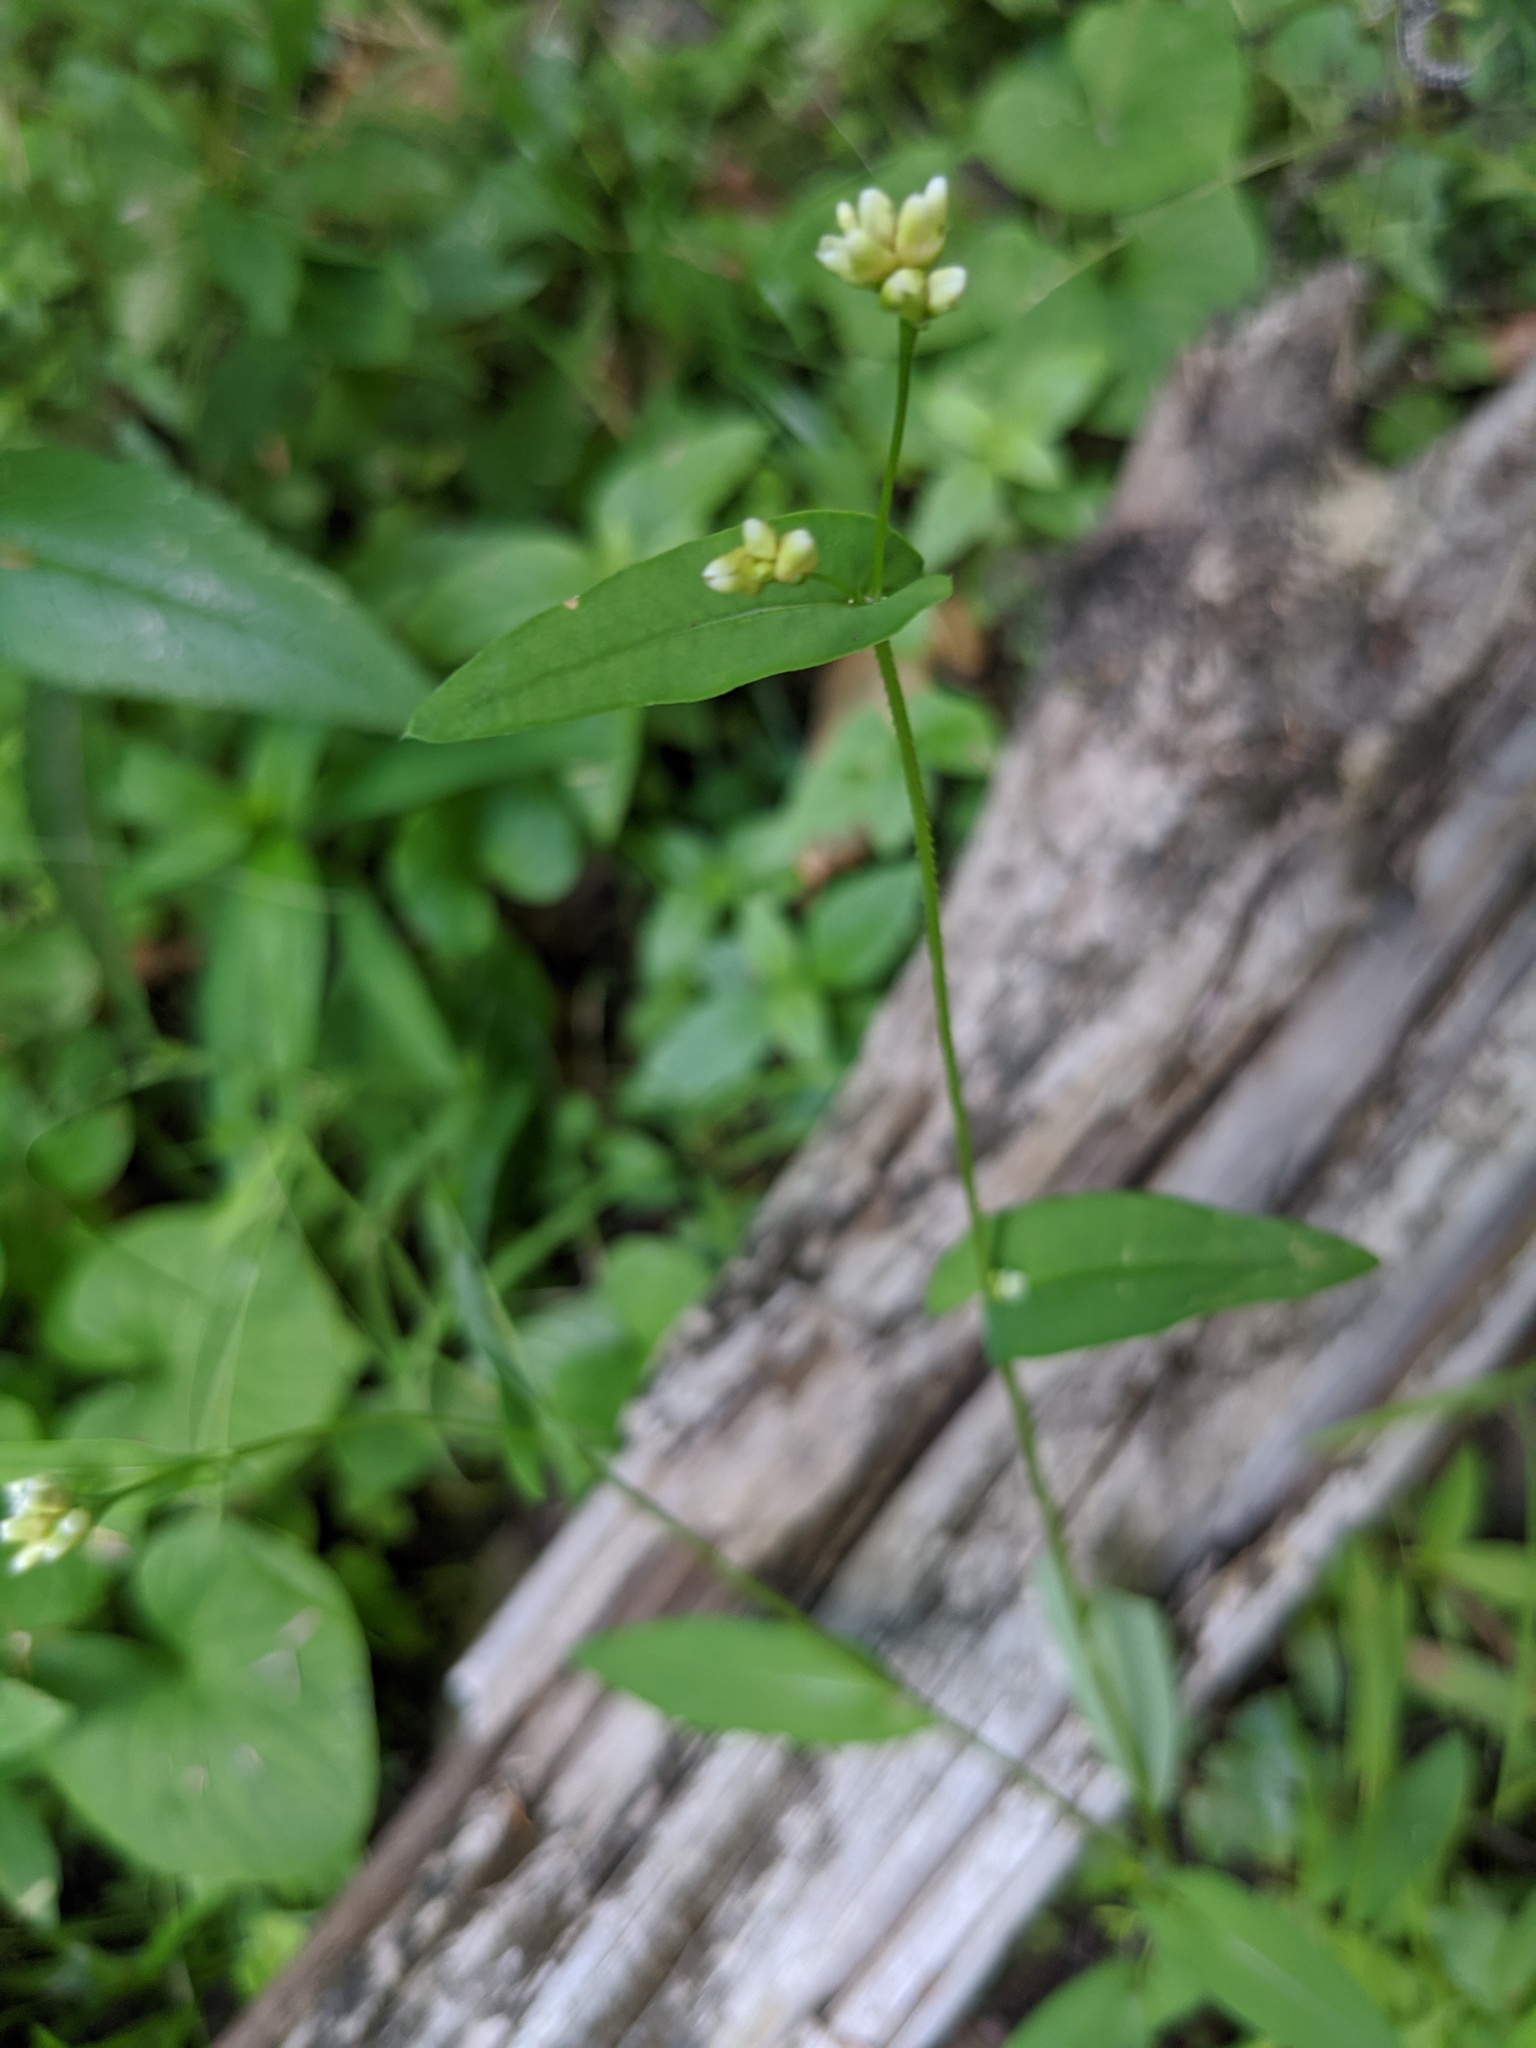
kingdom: Plantae
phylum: Tracheophyta
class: Magnoliopsida
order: Caryophyllales
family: Polygonaceae
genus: Persicaria
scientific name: Persicaria sagittata
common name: American tearthumb
